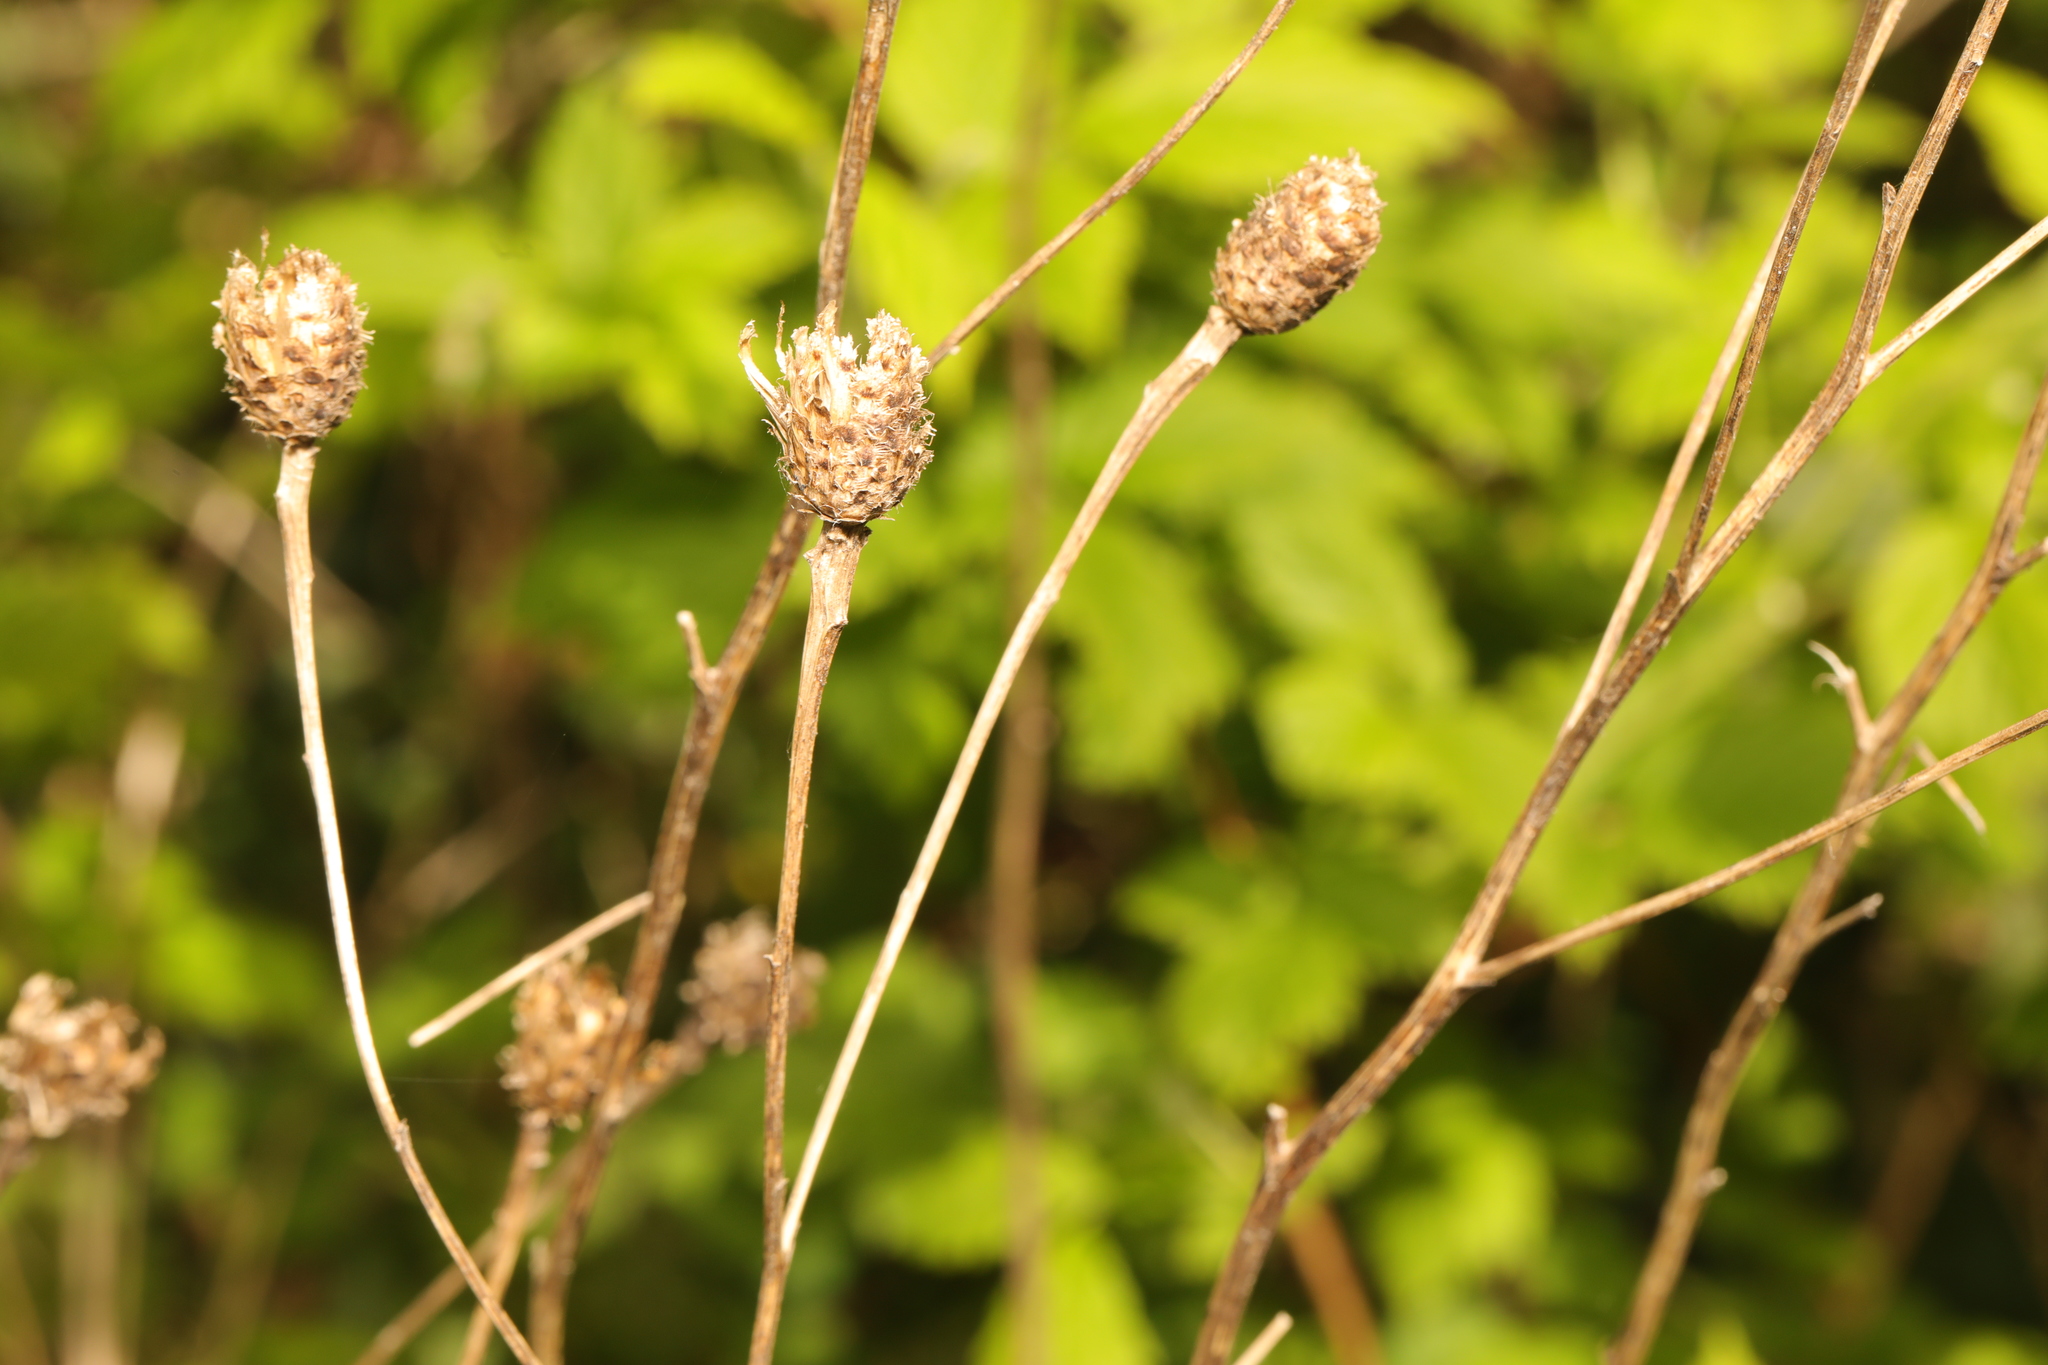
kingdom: Plantae
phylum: Tracheophyta
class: Magnoliopsida
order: Asterales
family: Asteraceae
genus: Centaurea
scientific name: Centaurea nigra
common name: Lesser knapweed
